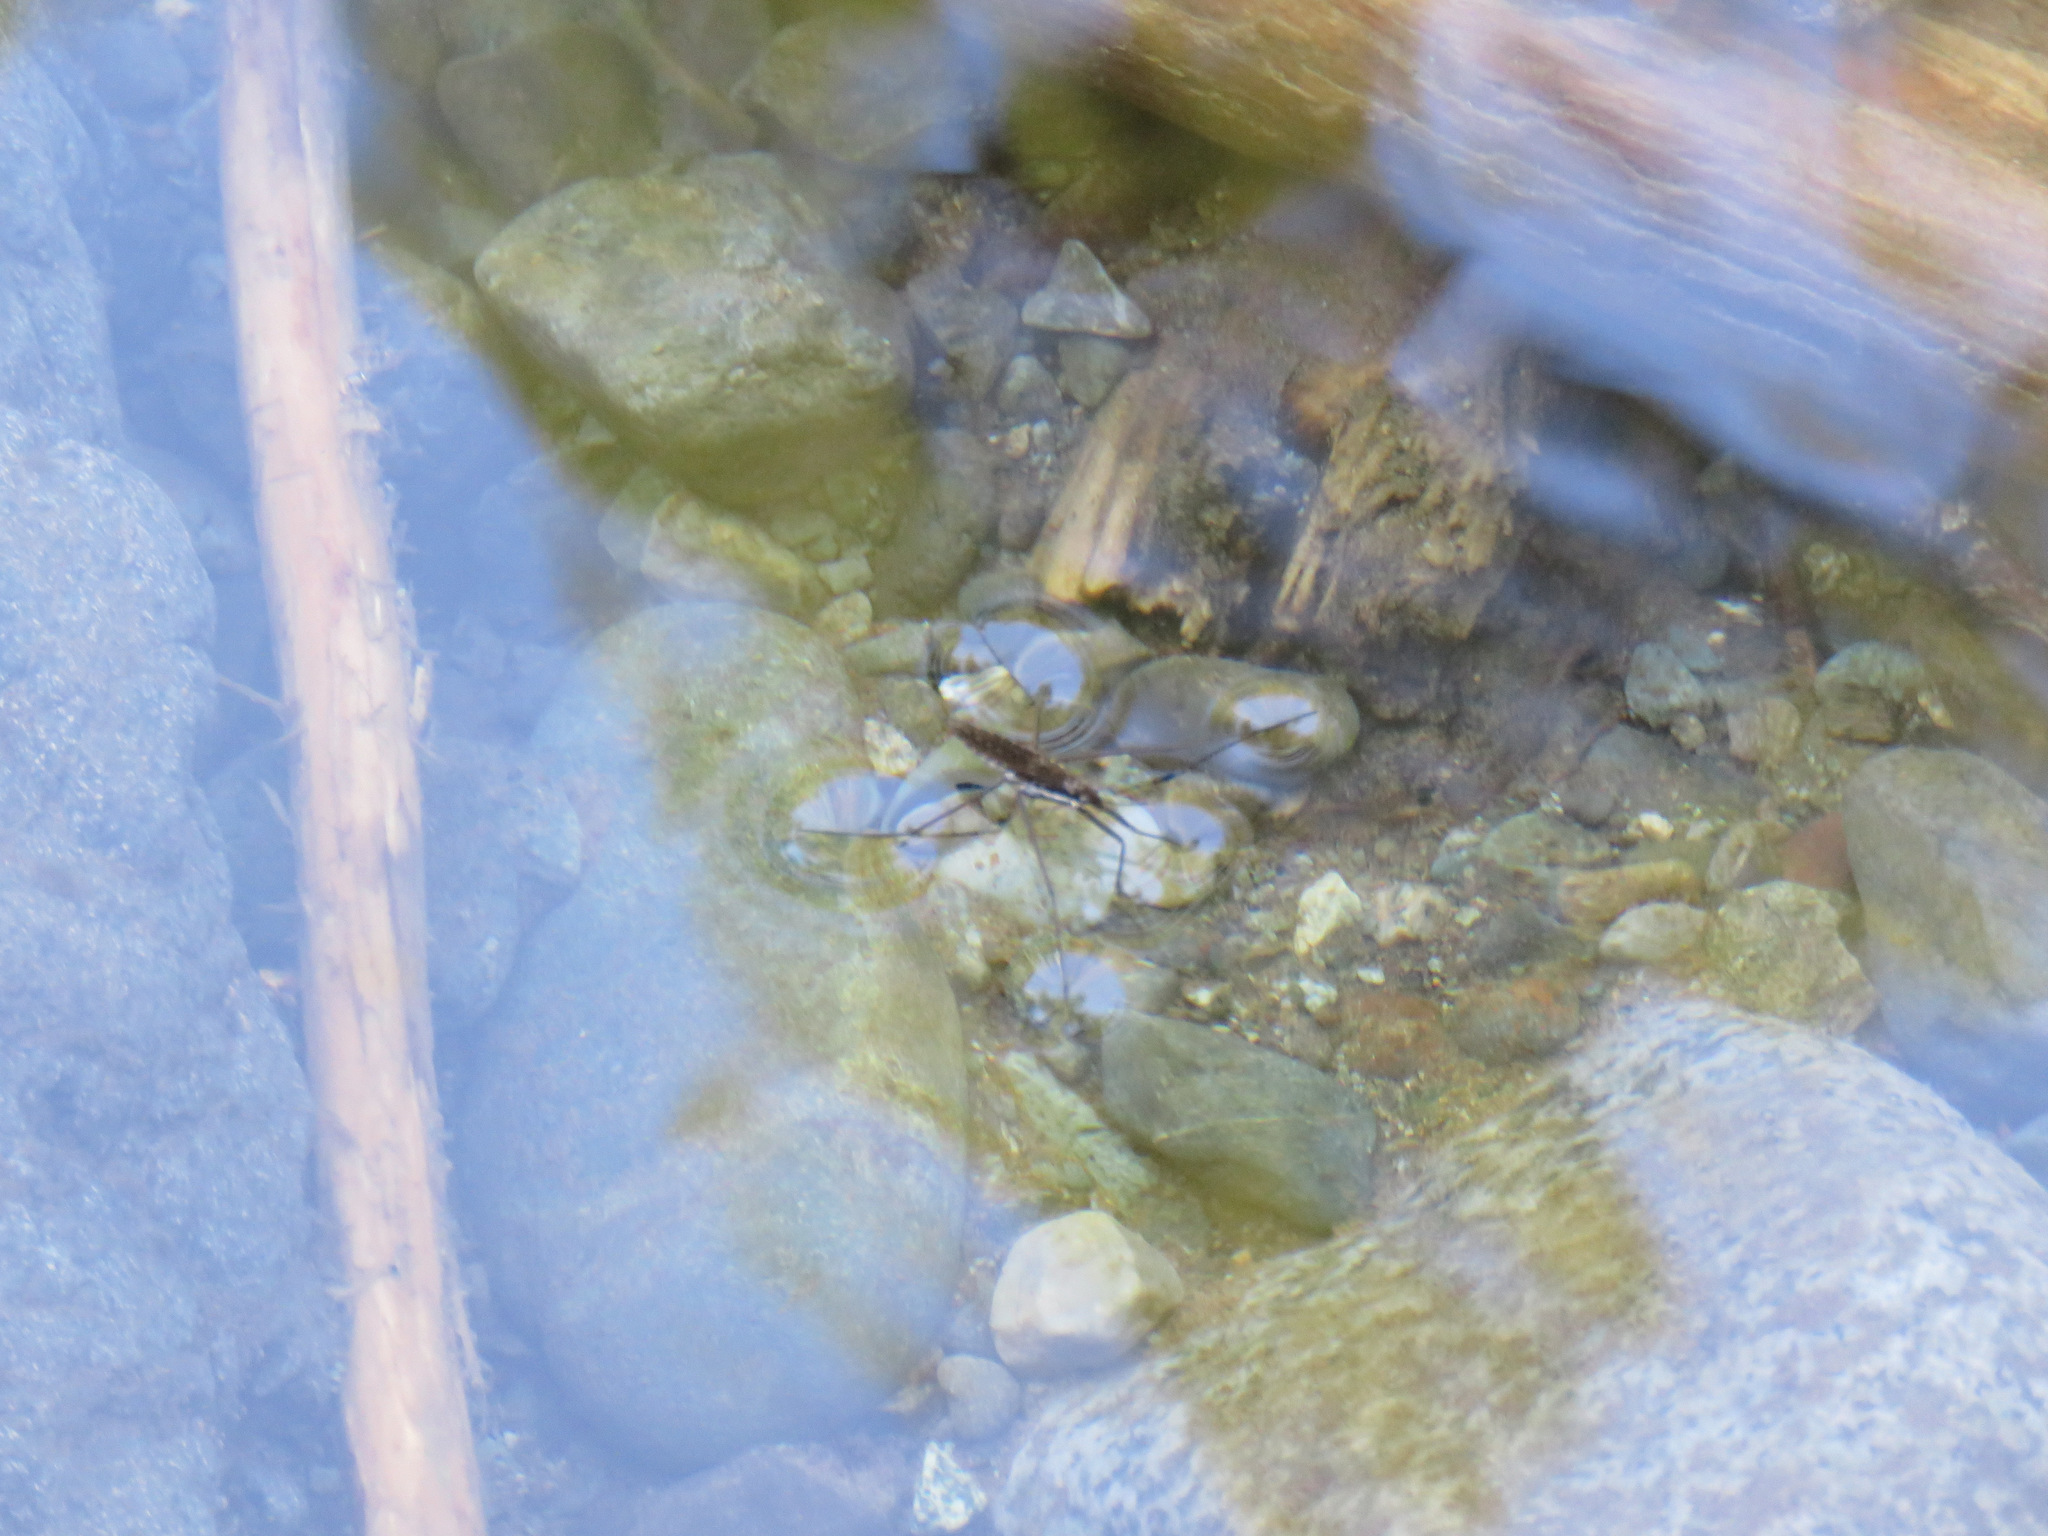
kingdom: Animalia
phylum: Arthropoda
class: Insecta
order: Hemiptera
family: Gerridae
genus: Aquarius
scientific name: Aquarius remigis
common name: Common water strider
